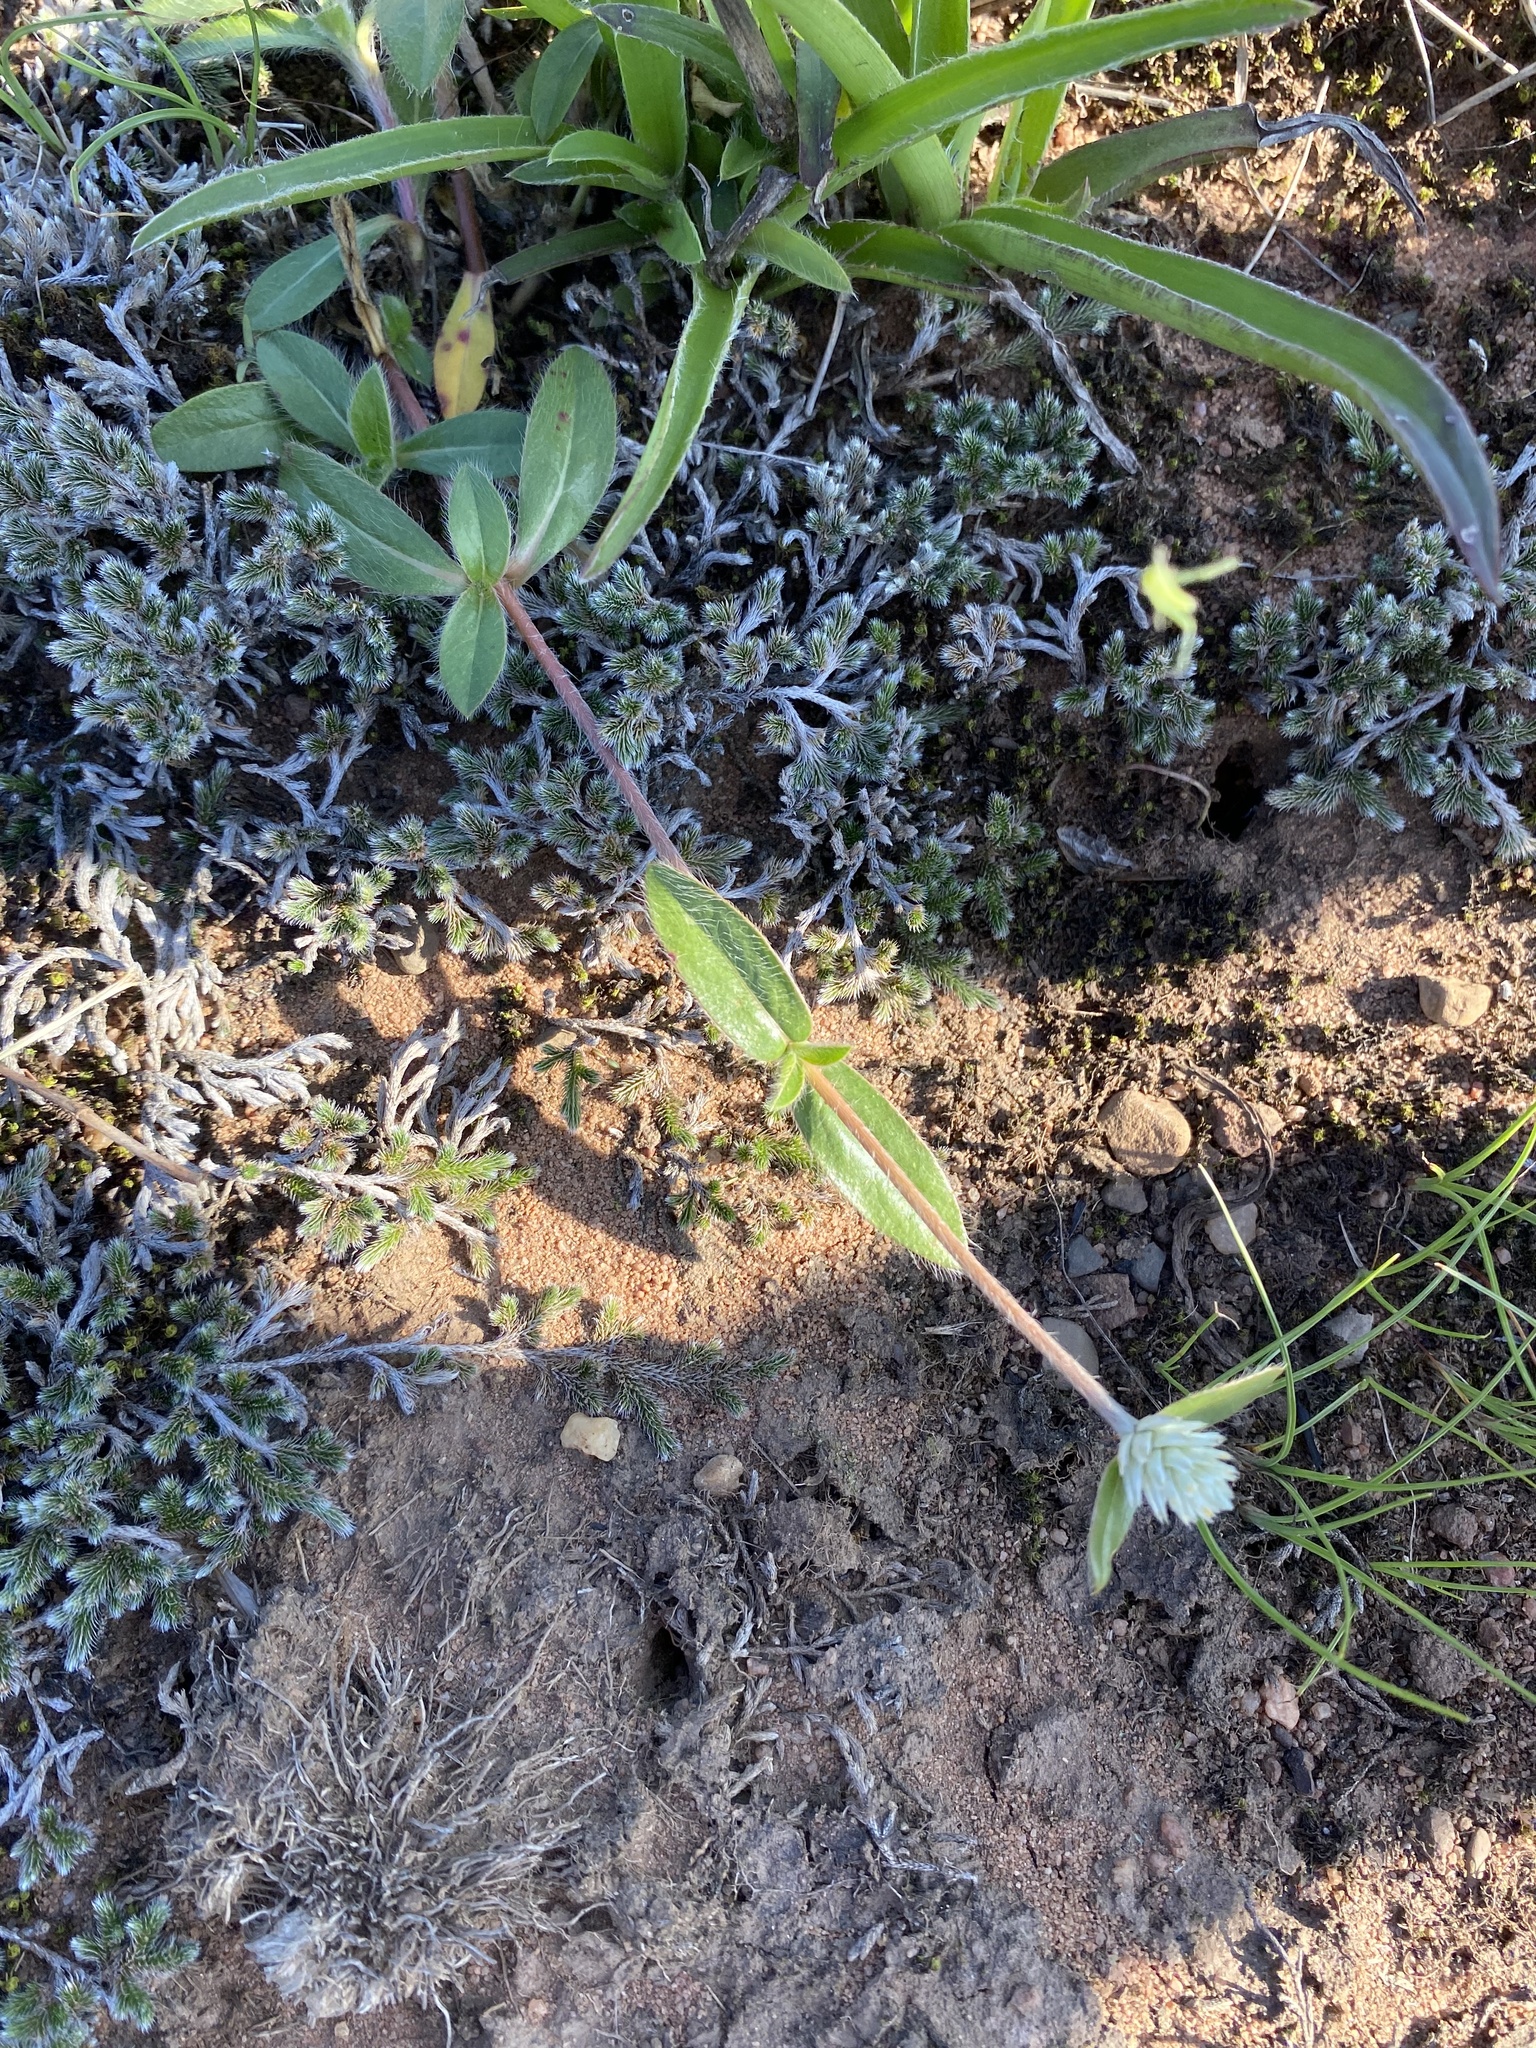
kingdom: Plantae
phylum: Tracheophyta
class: Magnoliopsida
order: Caryophyllales
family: Amaranthaceae
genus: Gomphrena
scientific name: Gomphrena celosioides
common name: Gomphrena-weed
